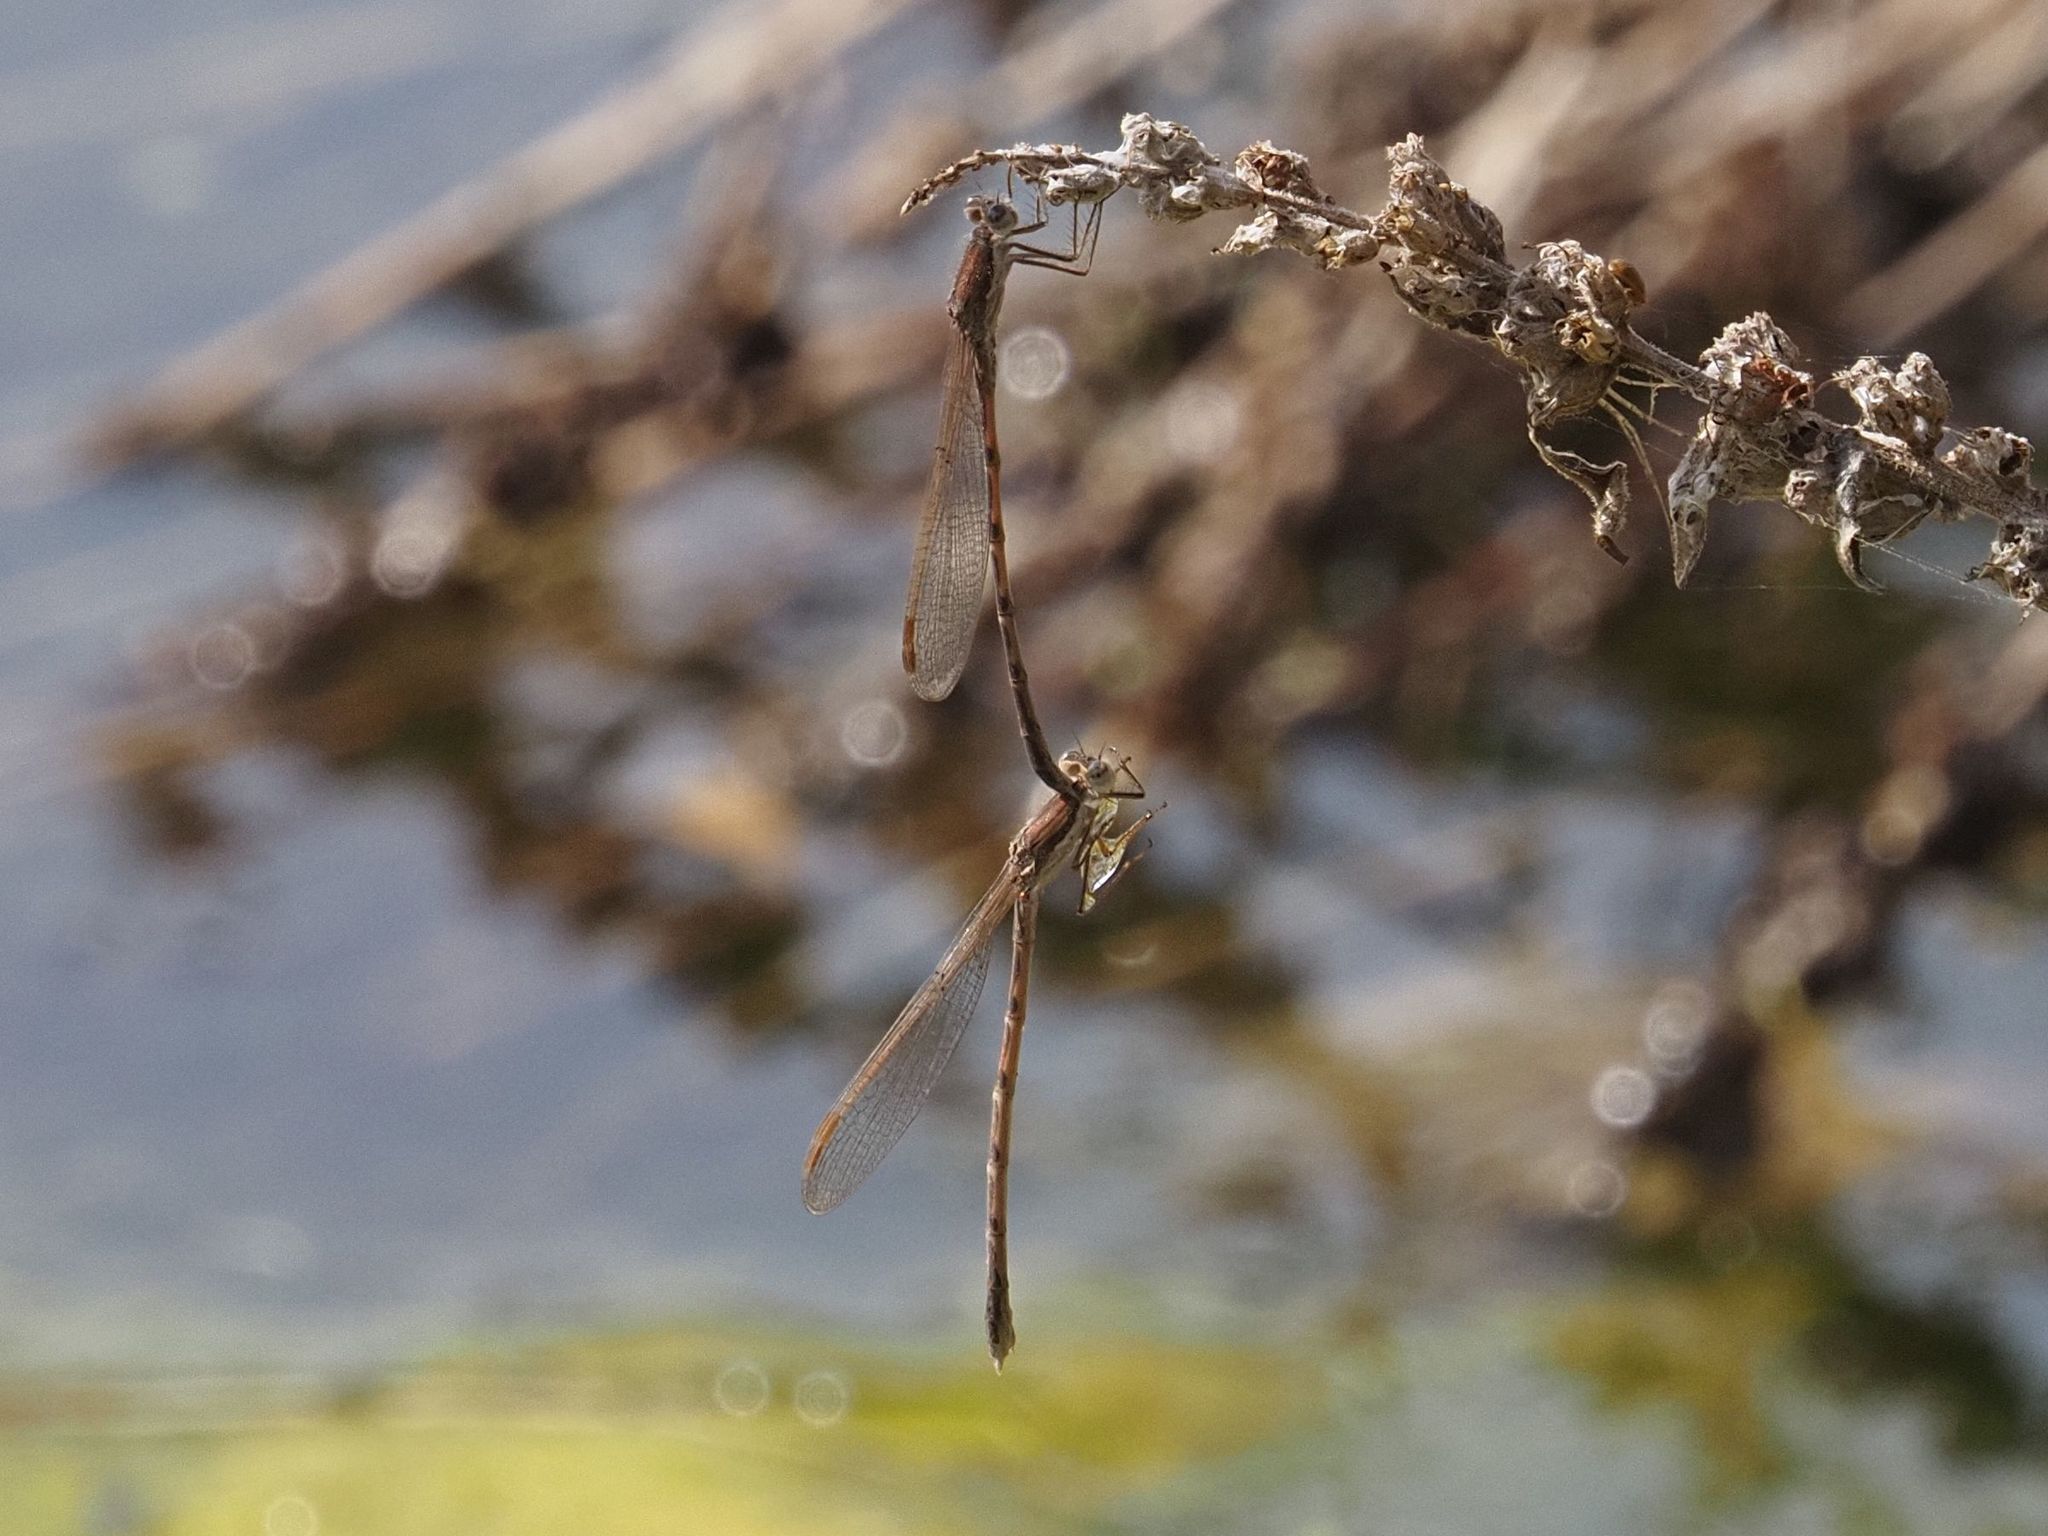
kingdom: Animalia
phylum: Arthropoda
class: Insecta
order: Odonata
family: Lestidae
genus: Sympecma
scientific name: Sympecma fusca
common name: Common winter damsel
